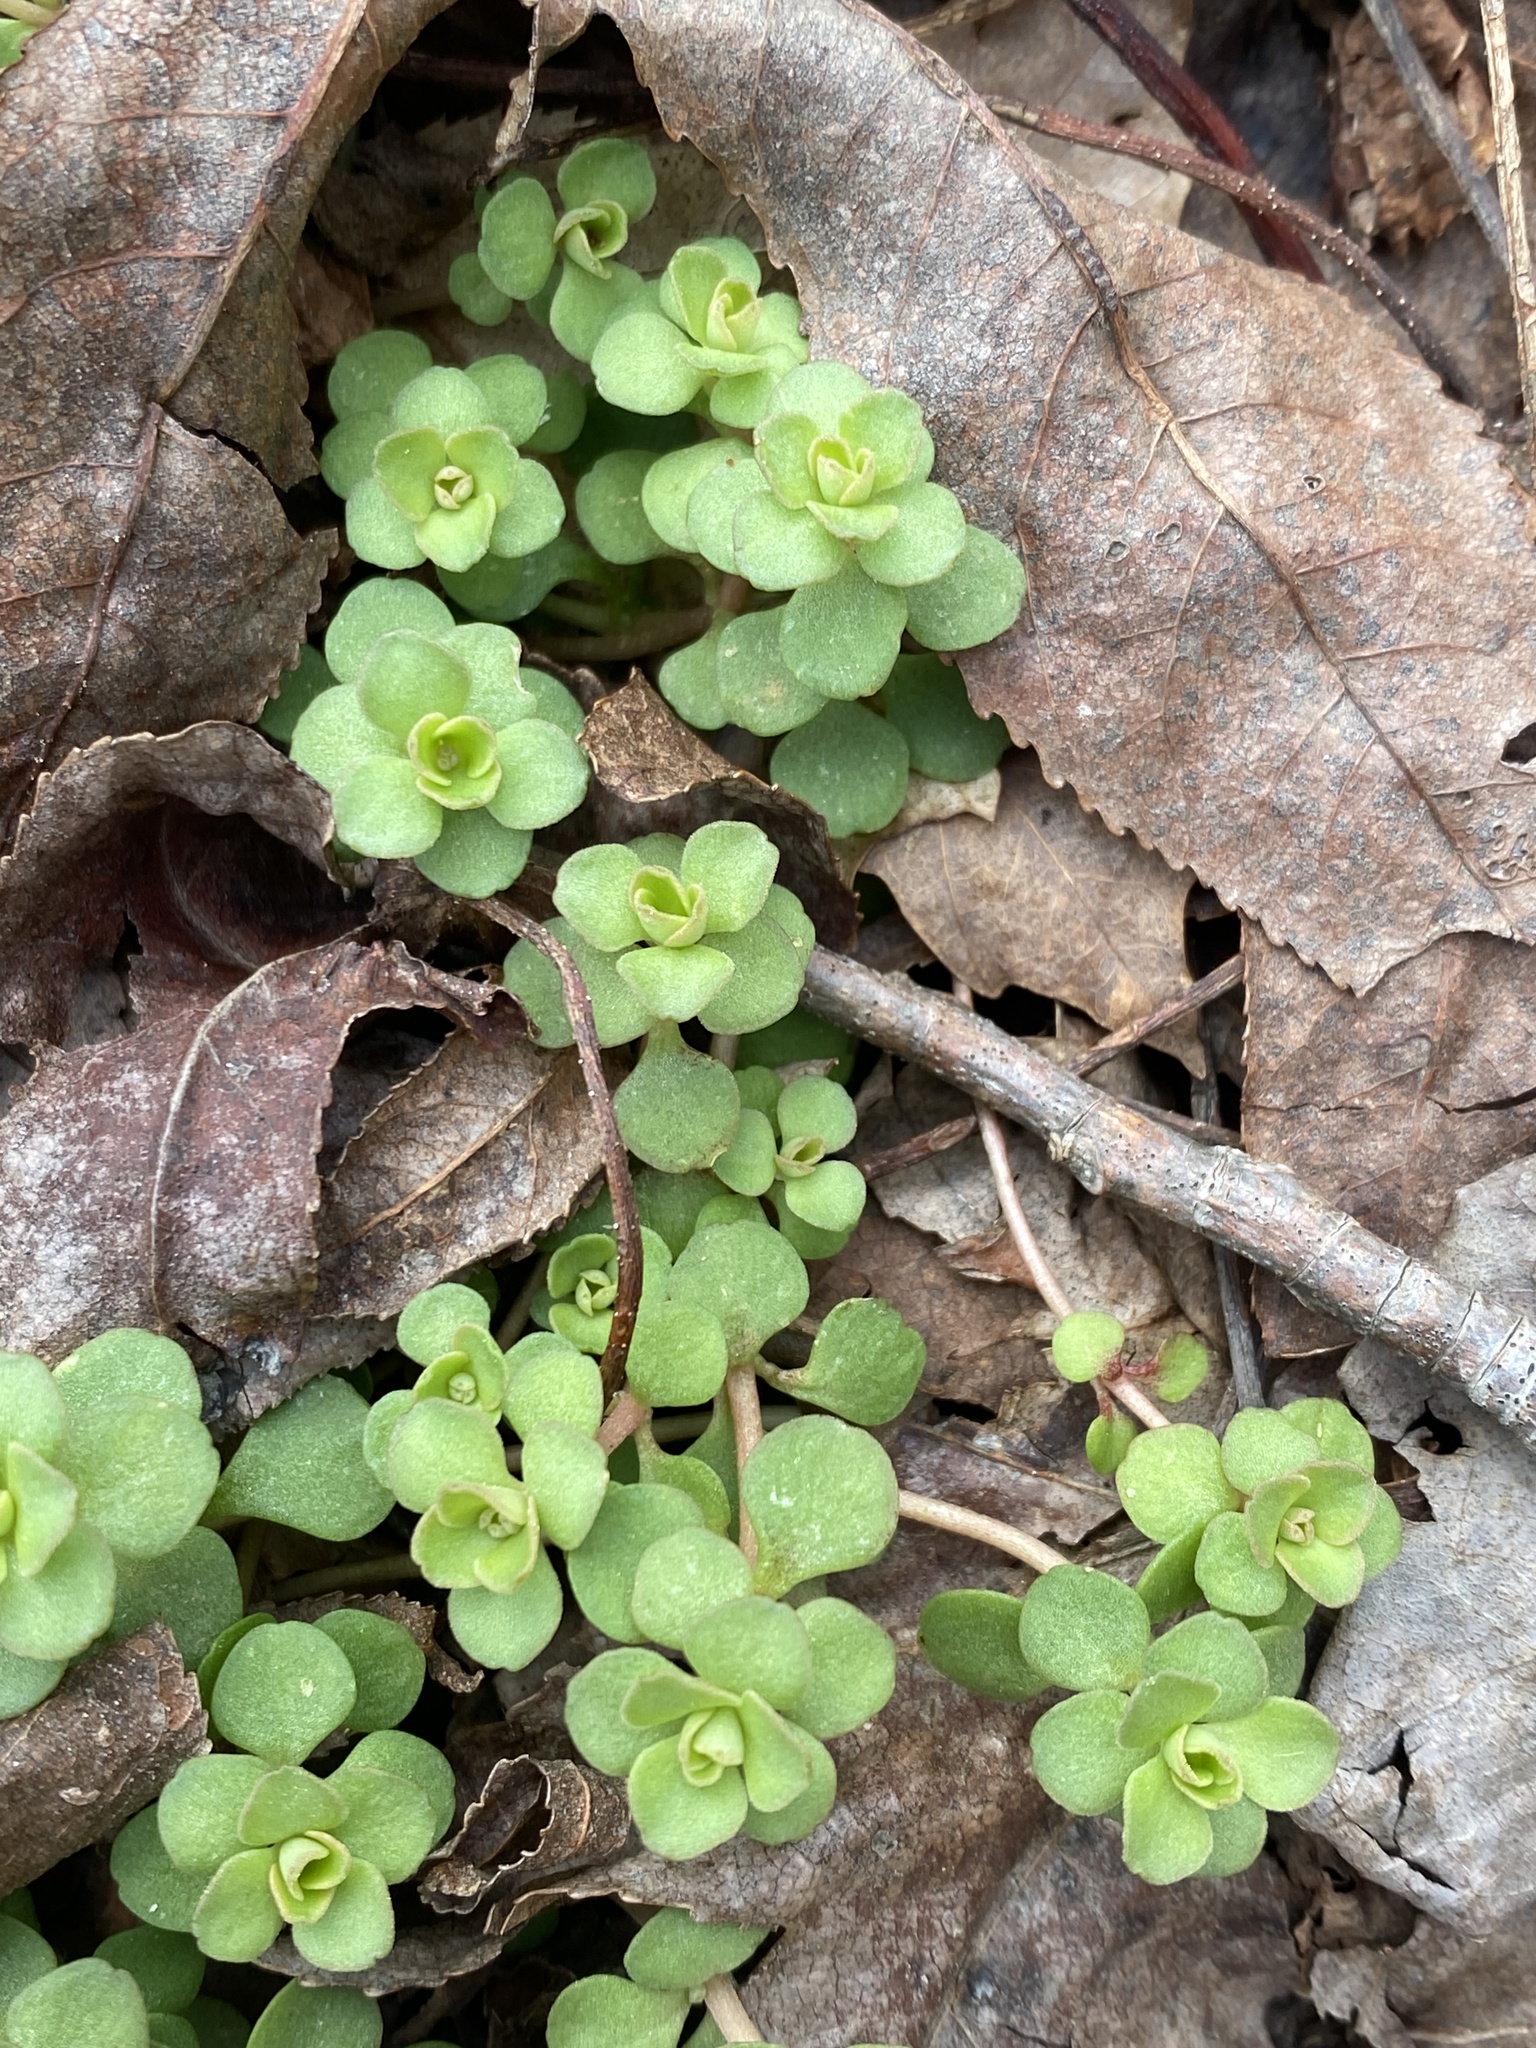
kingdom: Plantae
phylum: Tracheophyta
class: Magnoliopsida
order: Saxifragales
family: Crassulaceae
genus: Sedum
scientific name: Sedum ternatum
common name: Wild stonecrop
